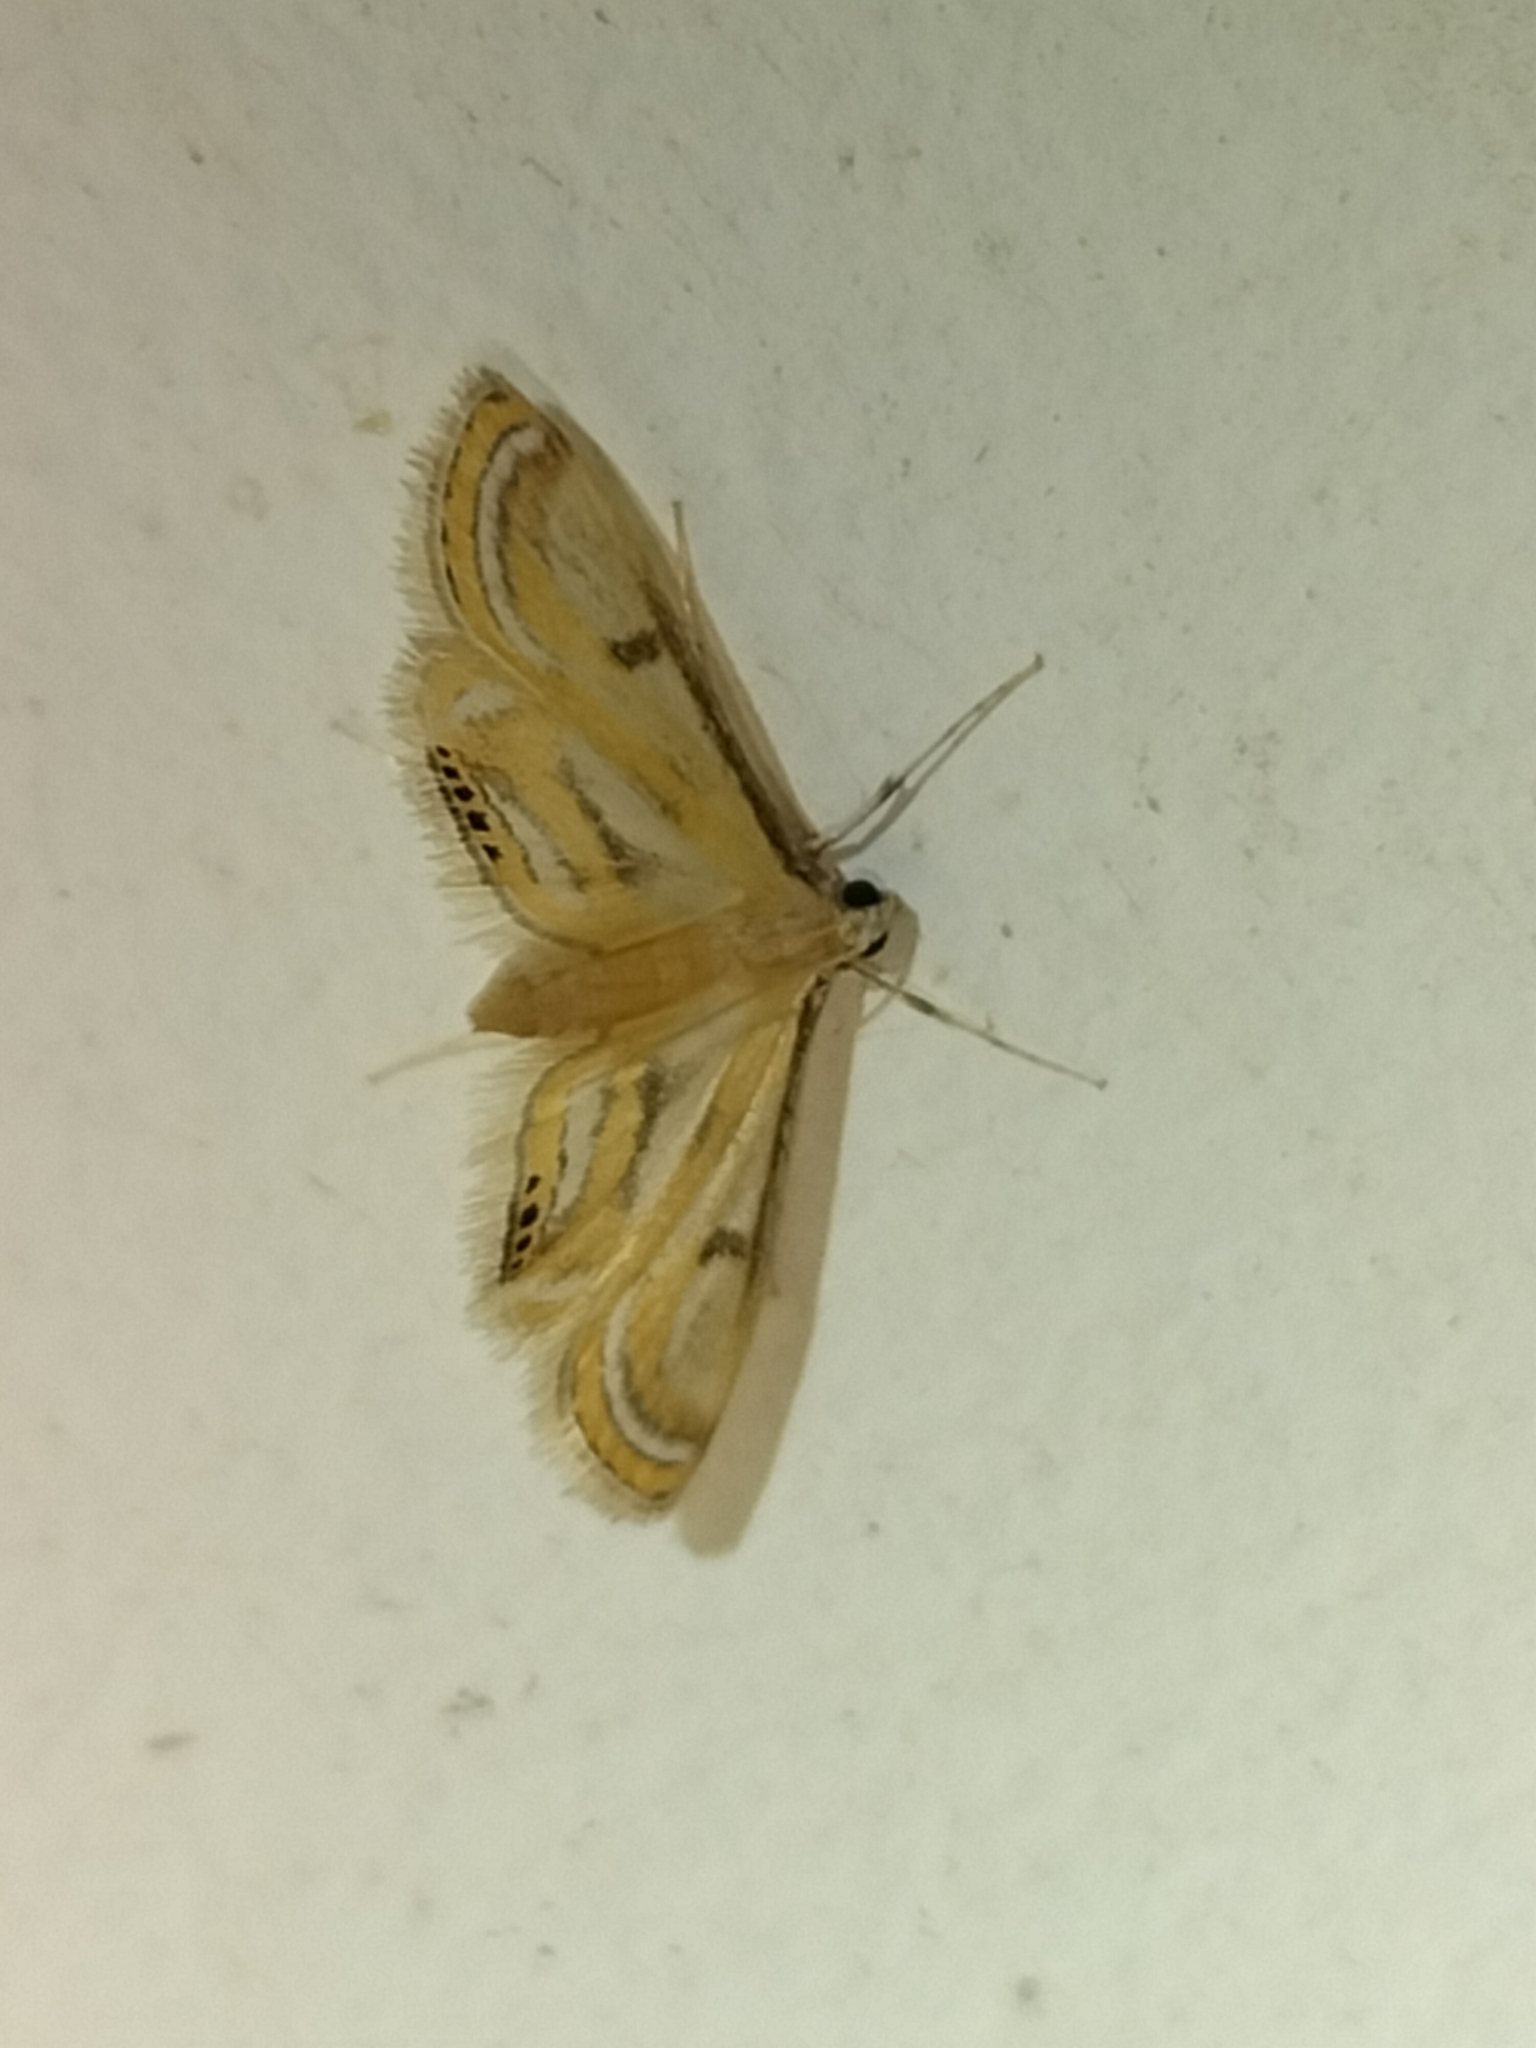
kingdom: Animalia
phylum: Arthropoda
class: Insecta
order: Lepidoptera
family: Crambidae
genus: Tetrernia
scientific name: Tetrernia teminitis
